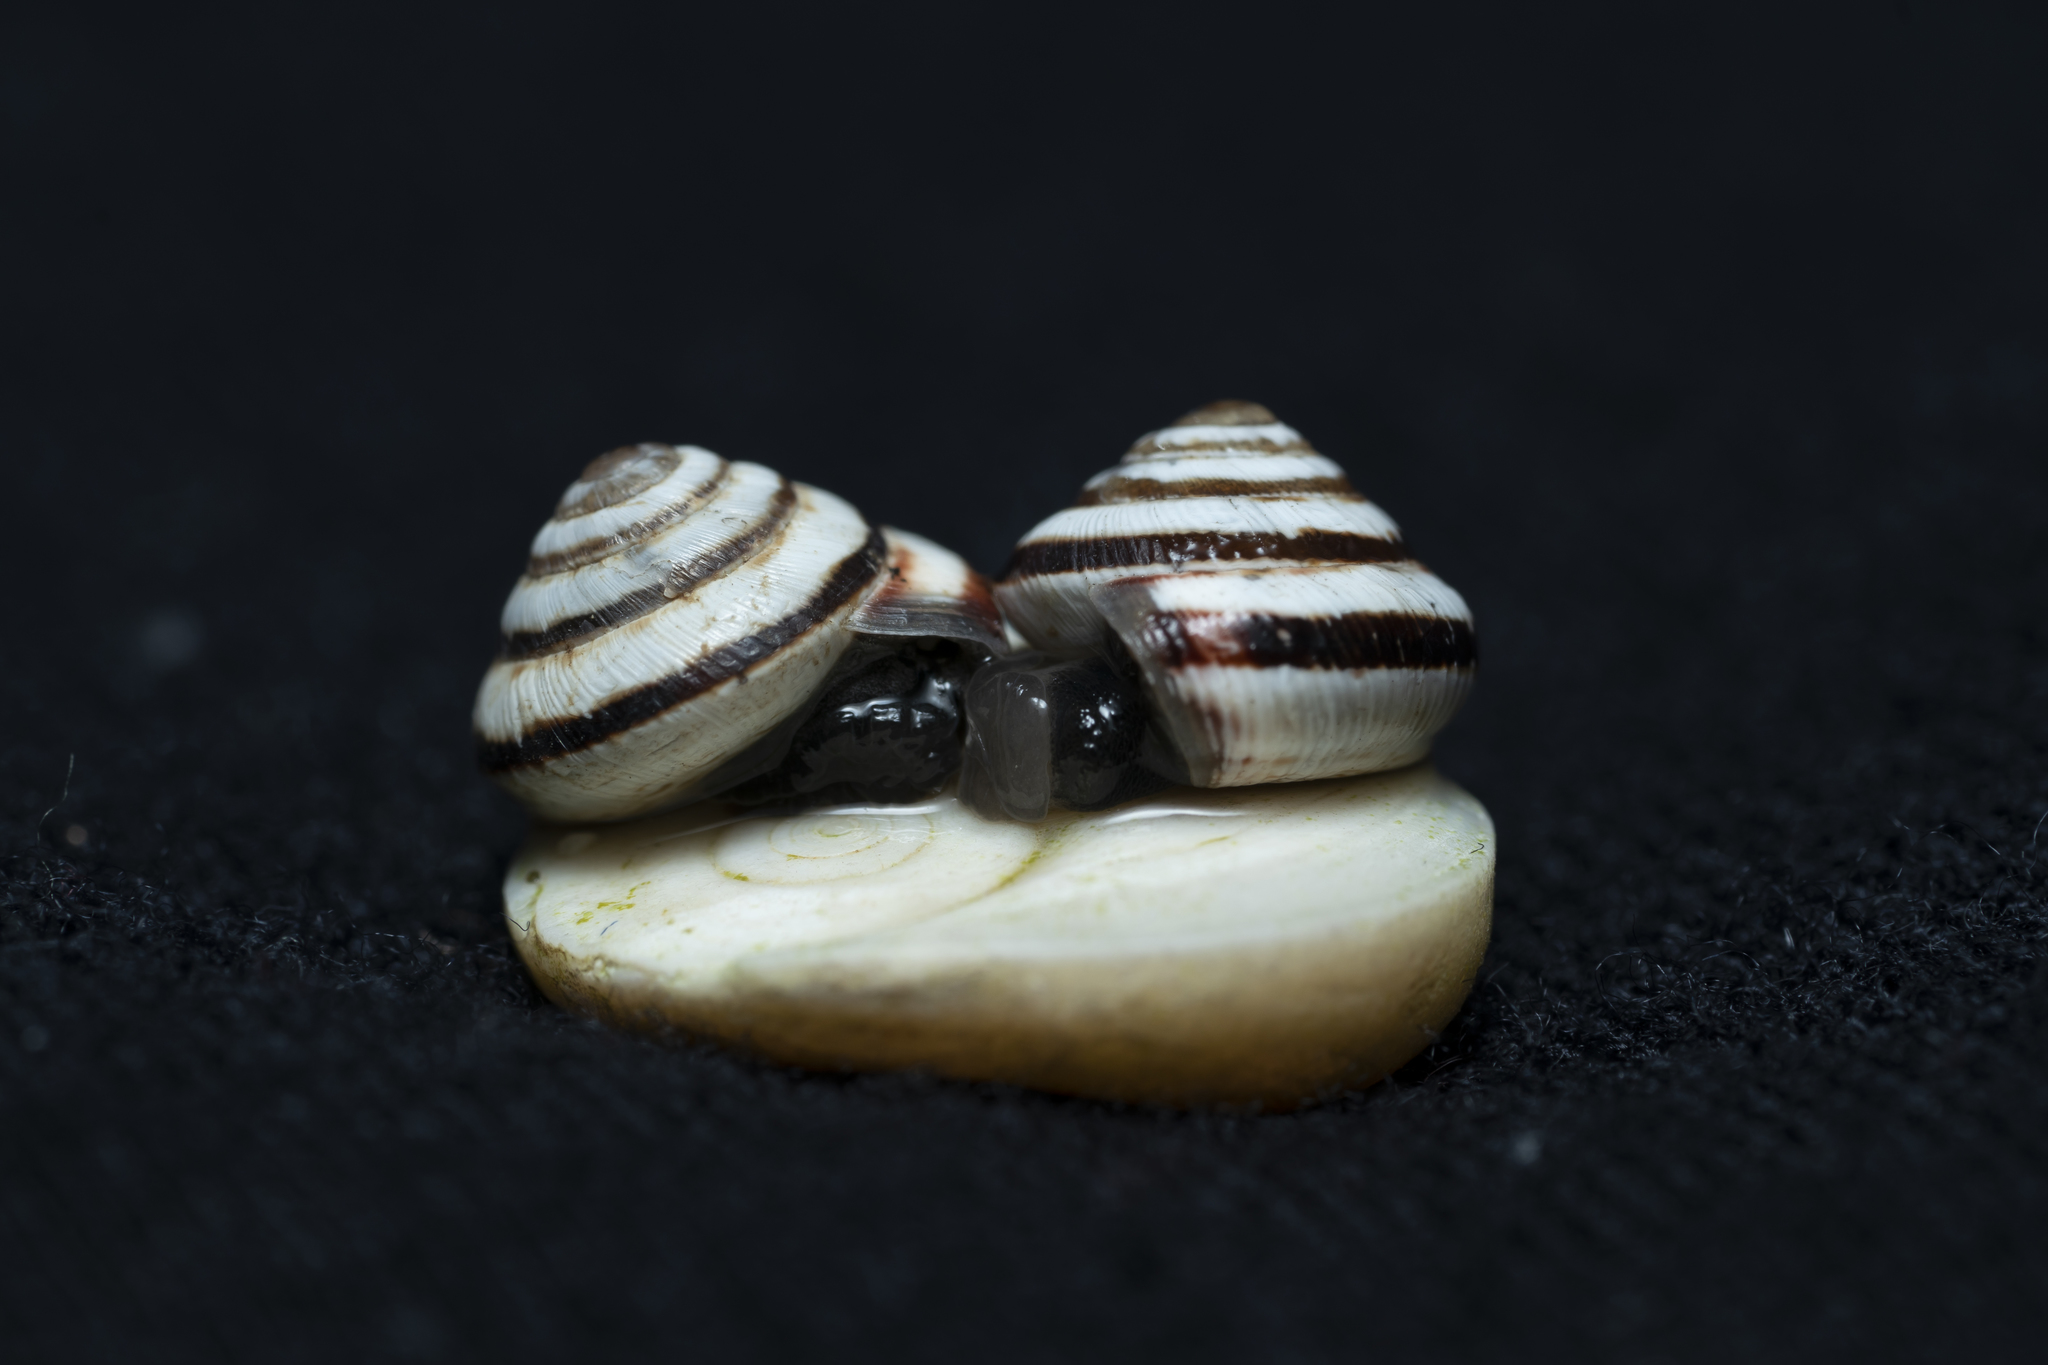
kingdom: Animalia
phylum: Mollusca
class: Gastropoda
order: Stylommatophora
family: Geomitridae
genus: Trochoidea
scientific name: Trochoidea pyramidata
